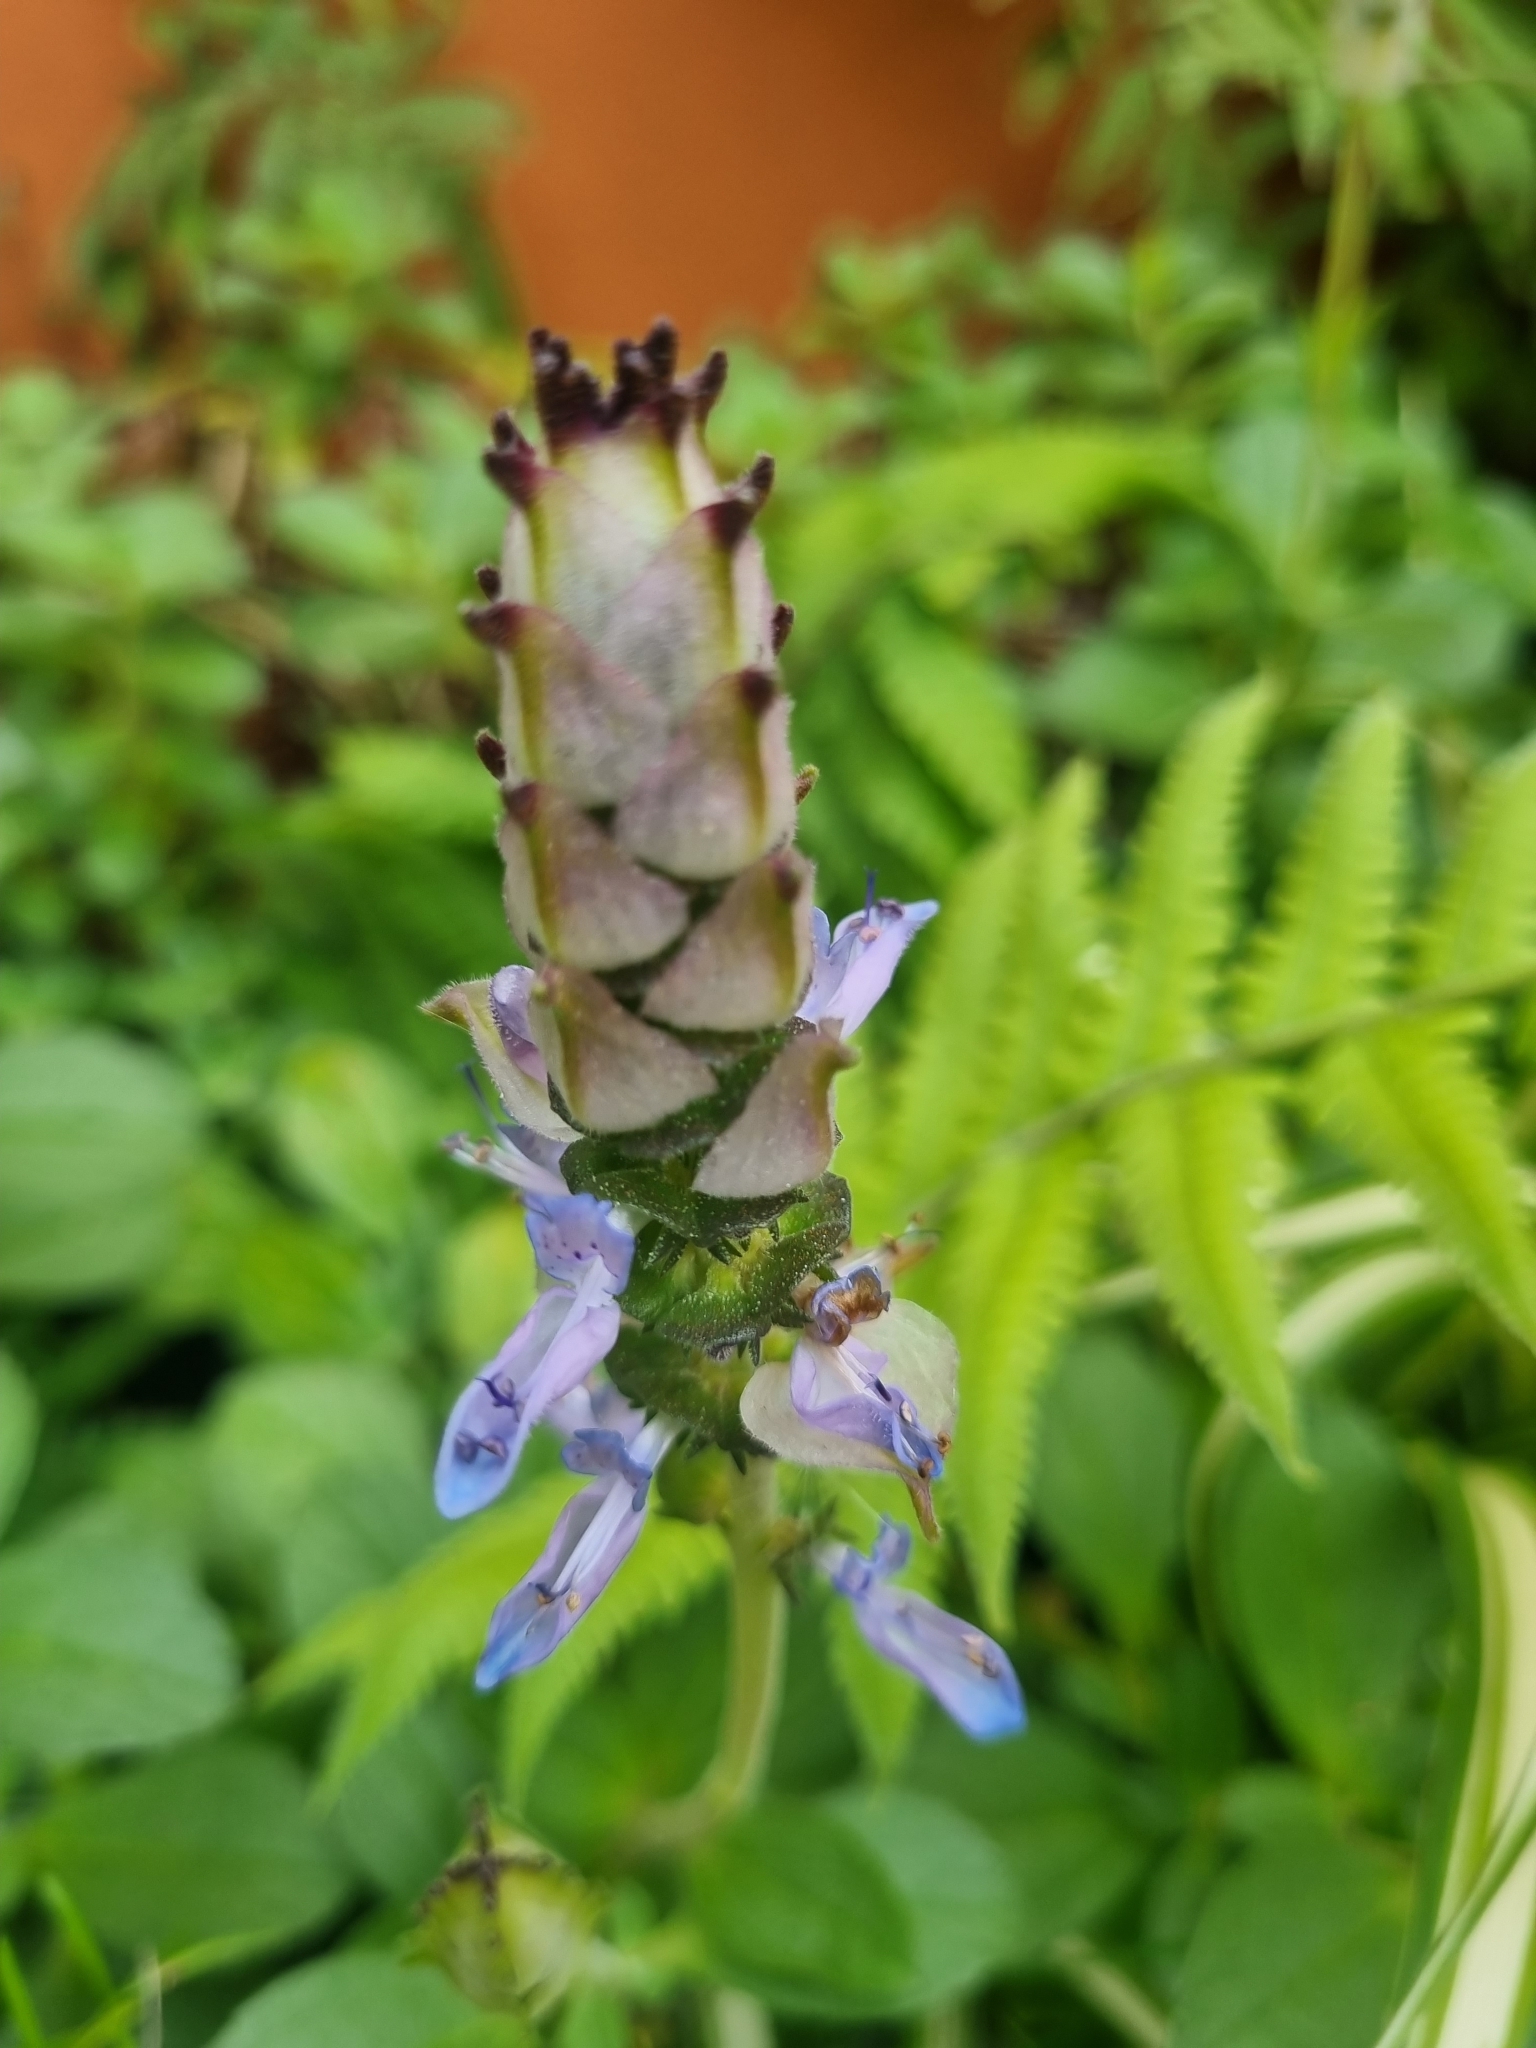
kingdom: Plantae
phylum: Tracheophyta
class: Magnoliopsida
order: Lamiales
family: Lamiaceae
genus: Coleus
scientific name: Coleus neochilus
